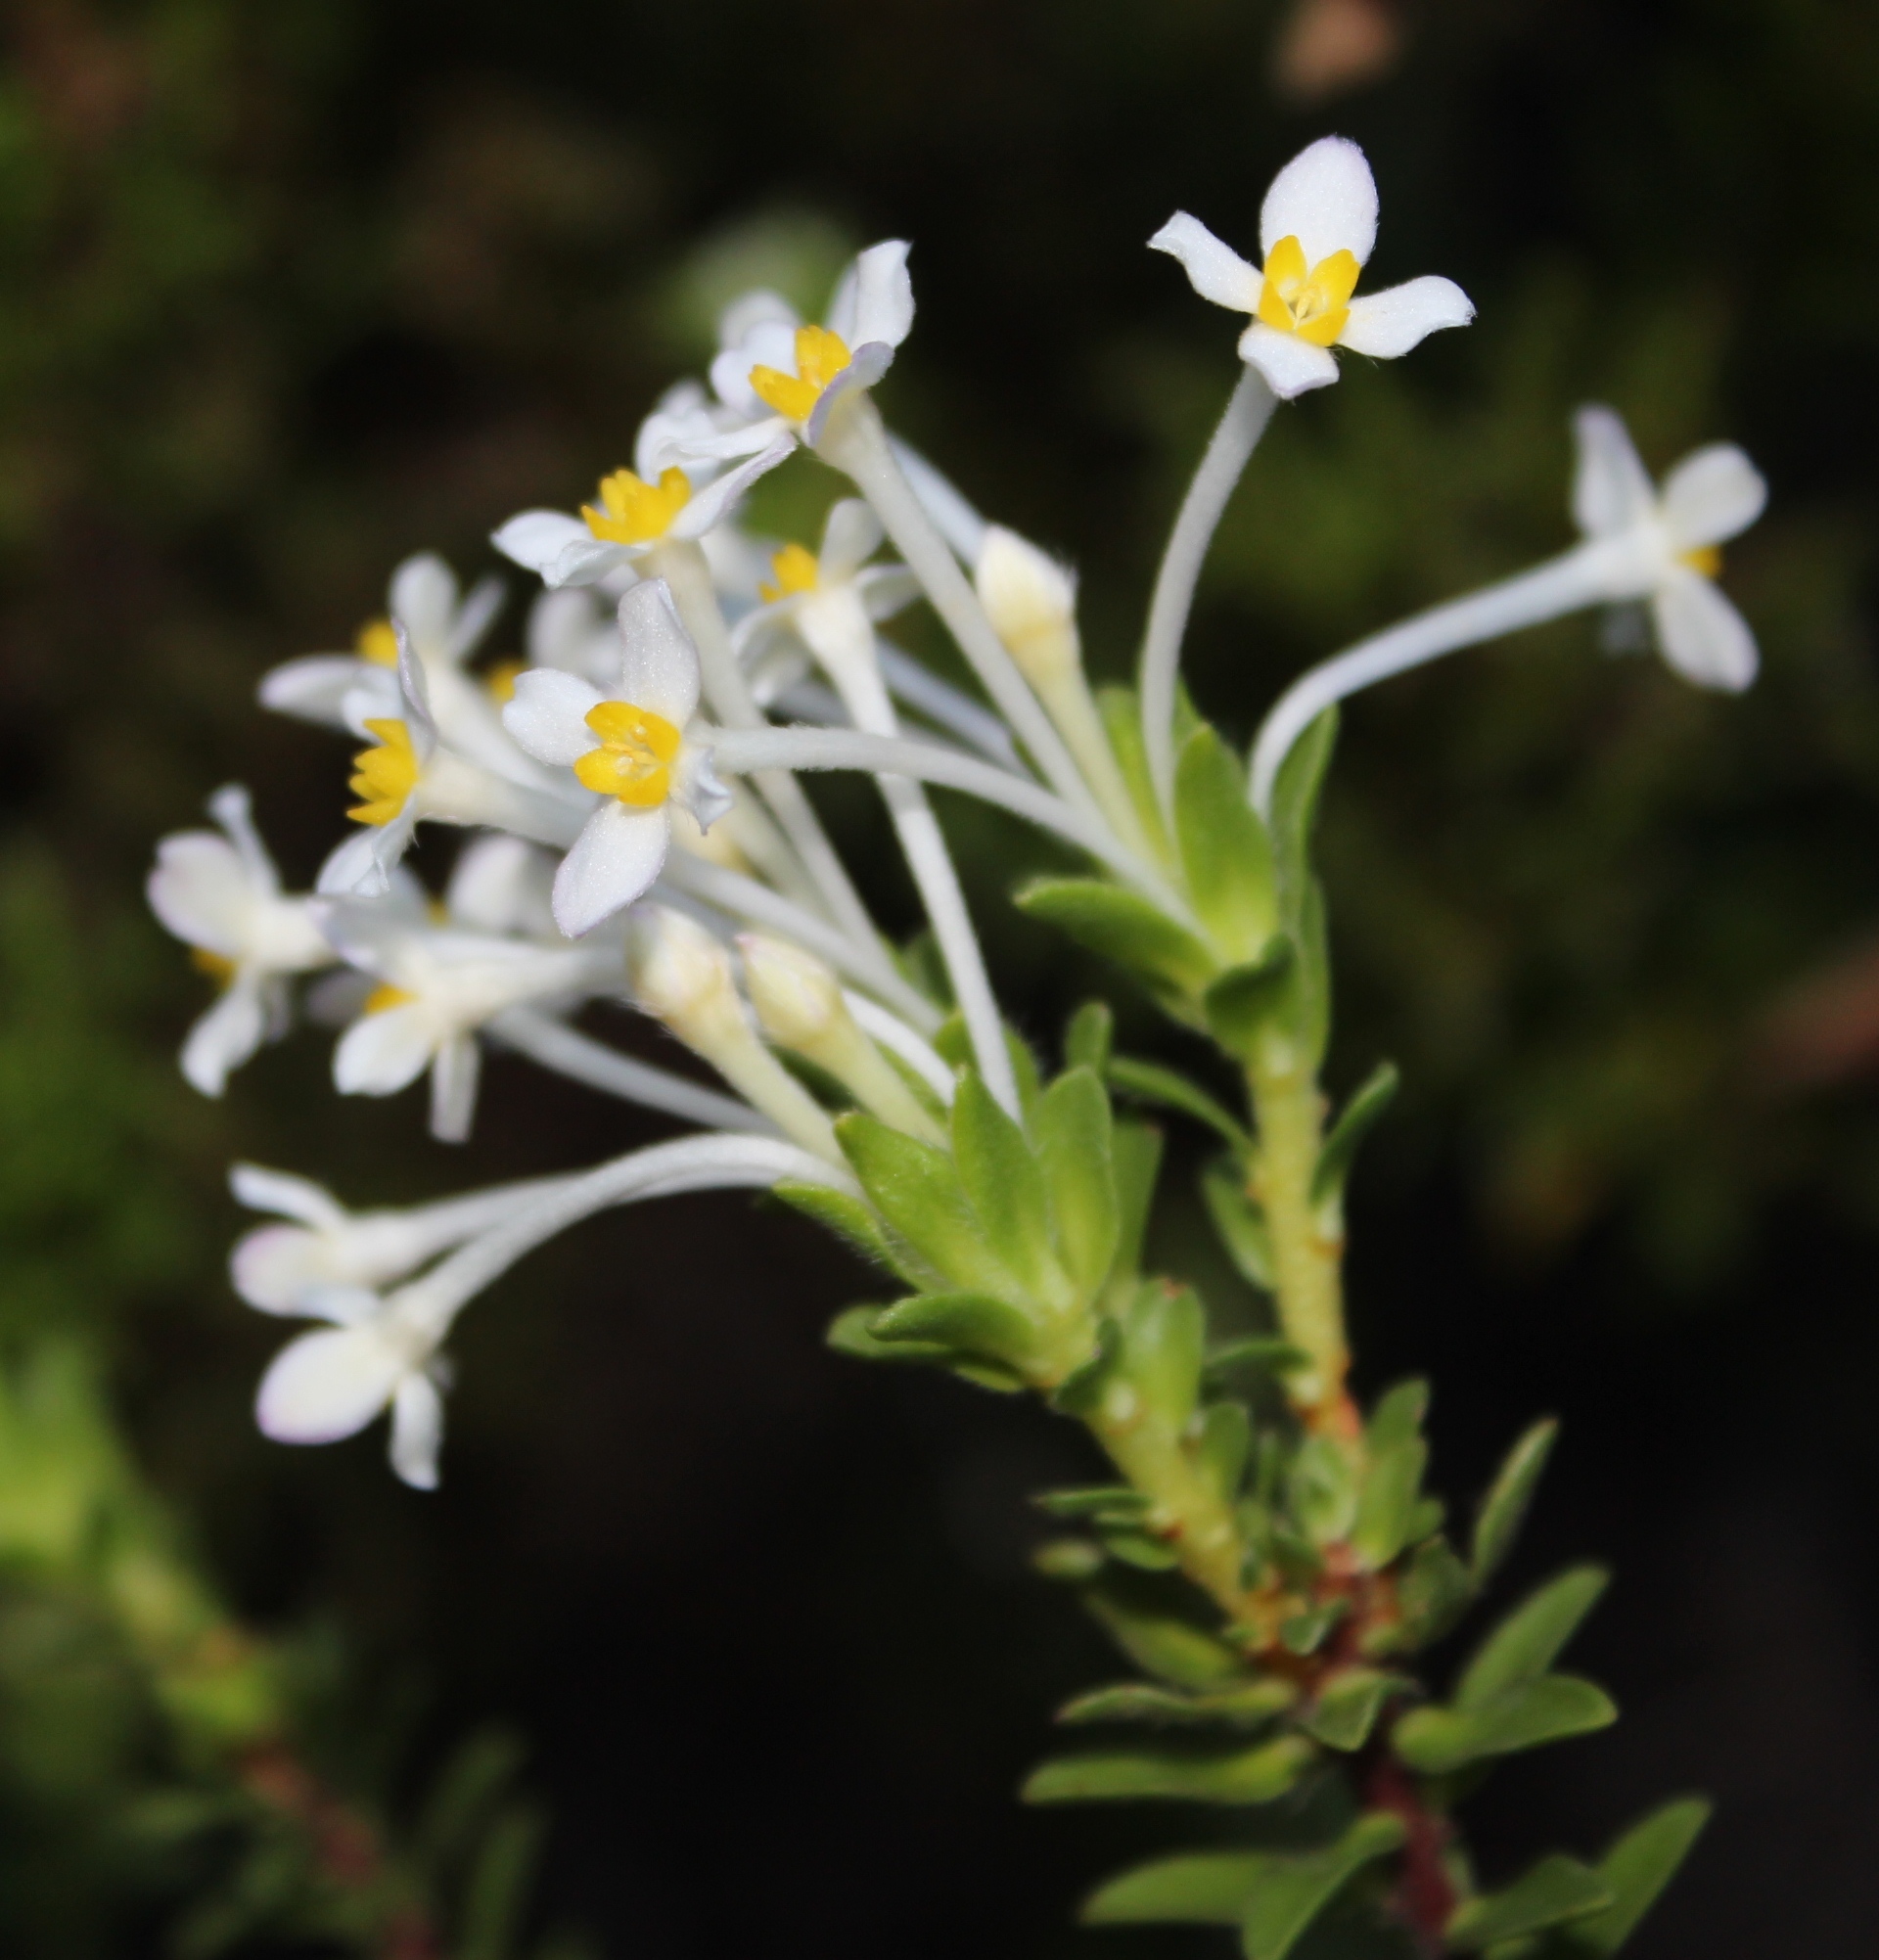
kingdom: Plantae
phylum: Tracheophyta
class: Magnoliopsida
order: Malvales
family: Thymelaeaceae
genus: Gnidia
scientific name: Gnidia tomentosa
